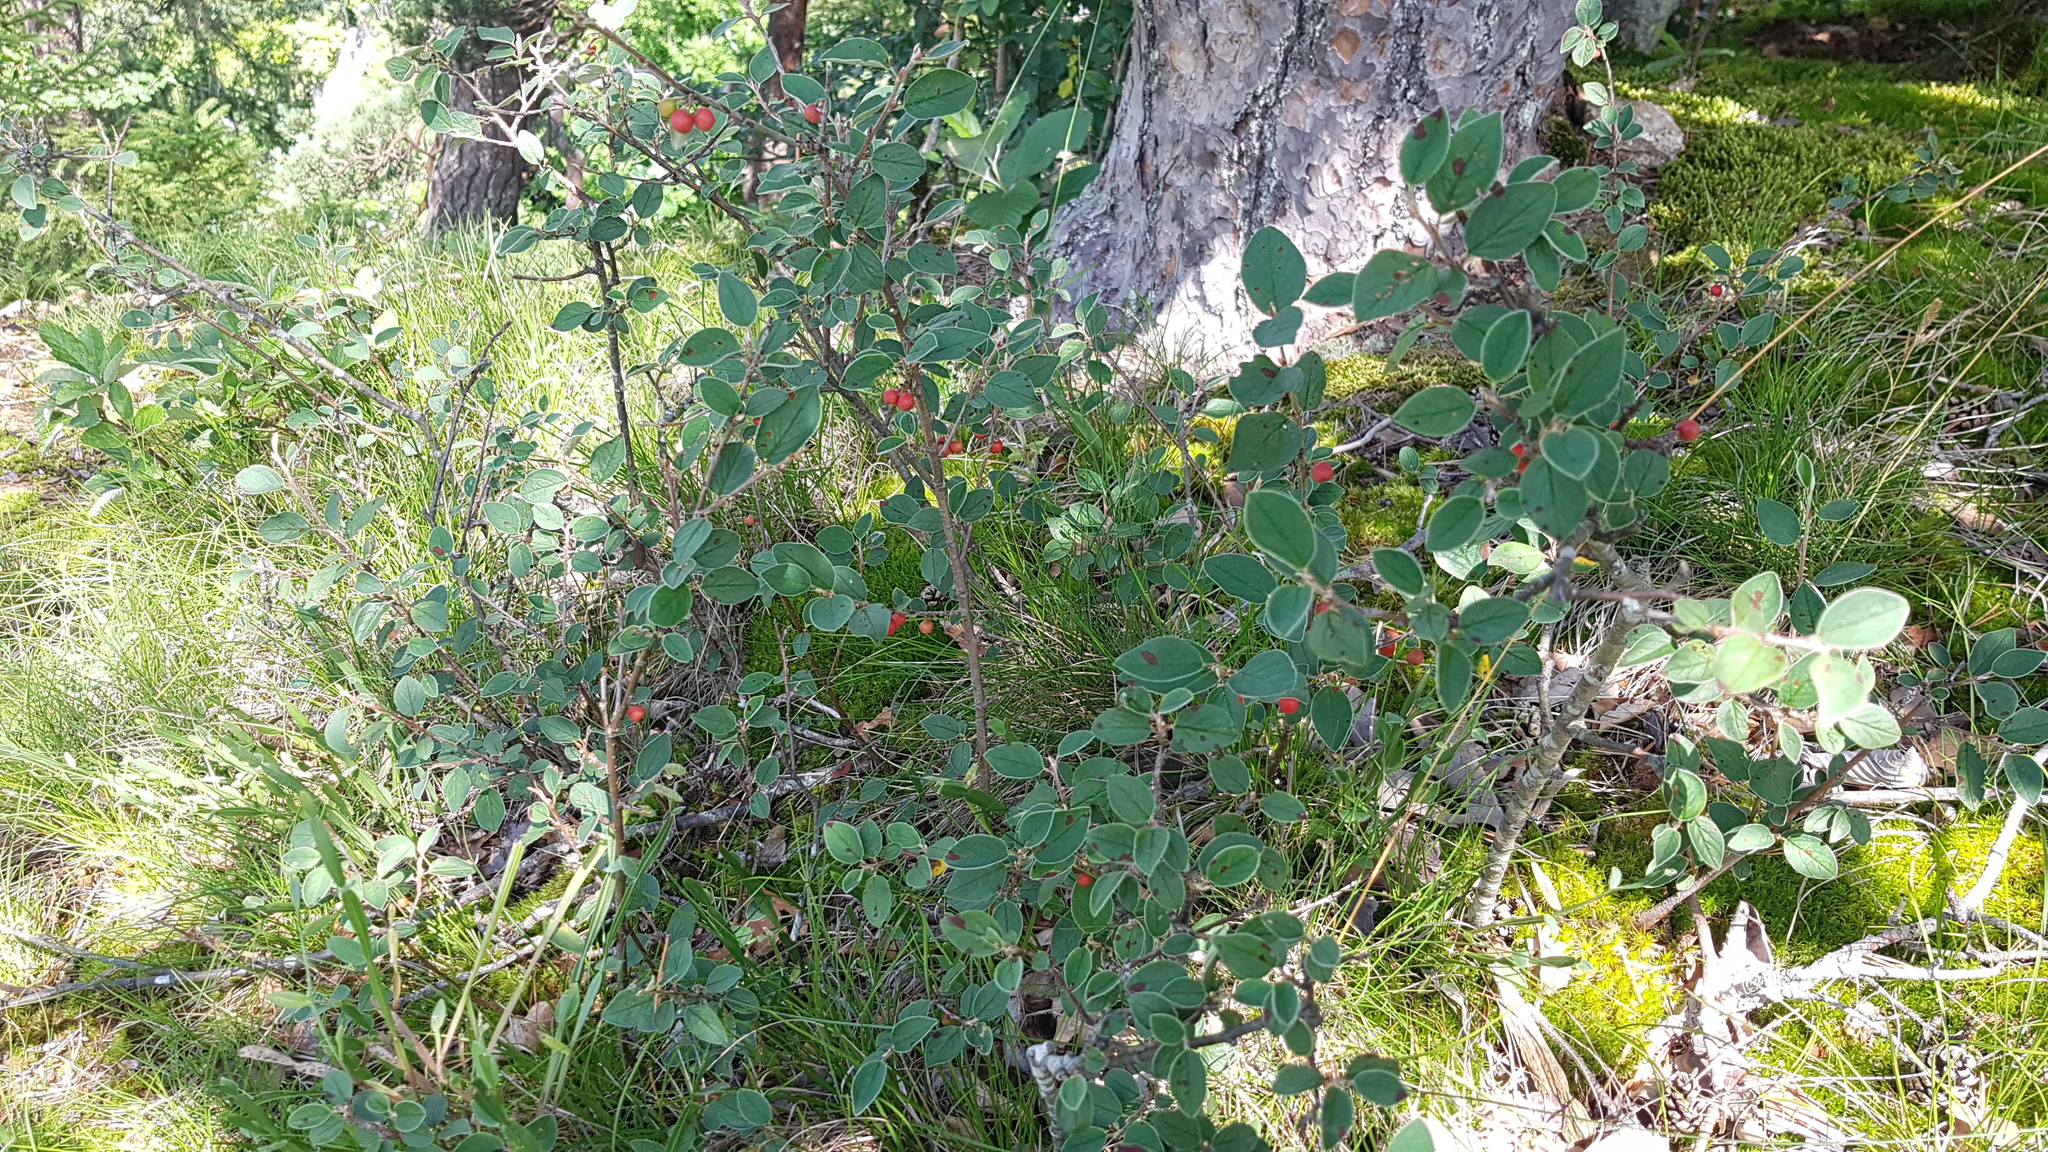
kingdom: Plantae
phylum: Tracheophyta
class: Magnoliopsida
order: Rosales
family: Rosaceae
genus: Cotoneaster
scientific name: Cotoneaster integerrimus
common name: Wild cotoneaster
